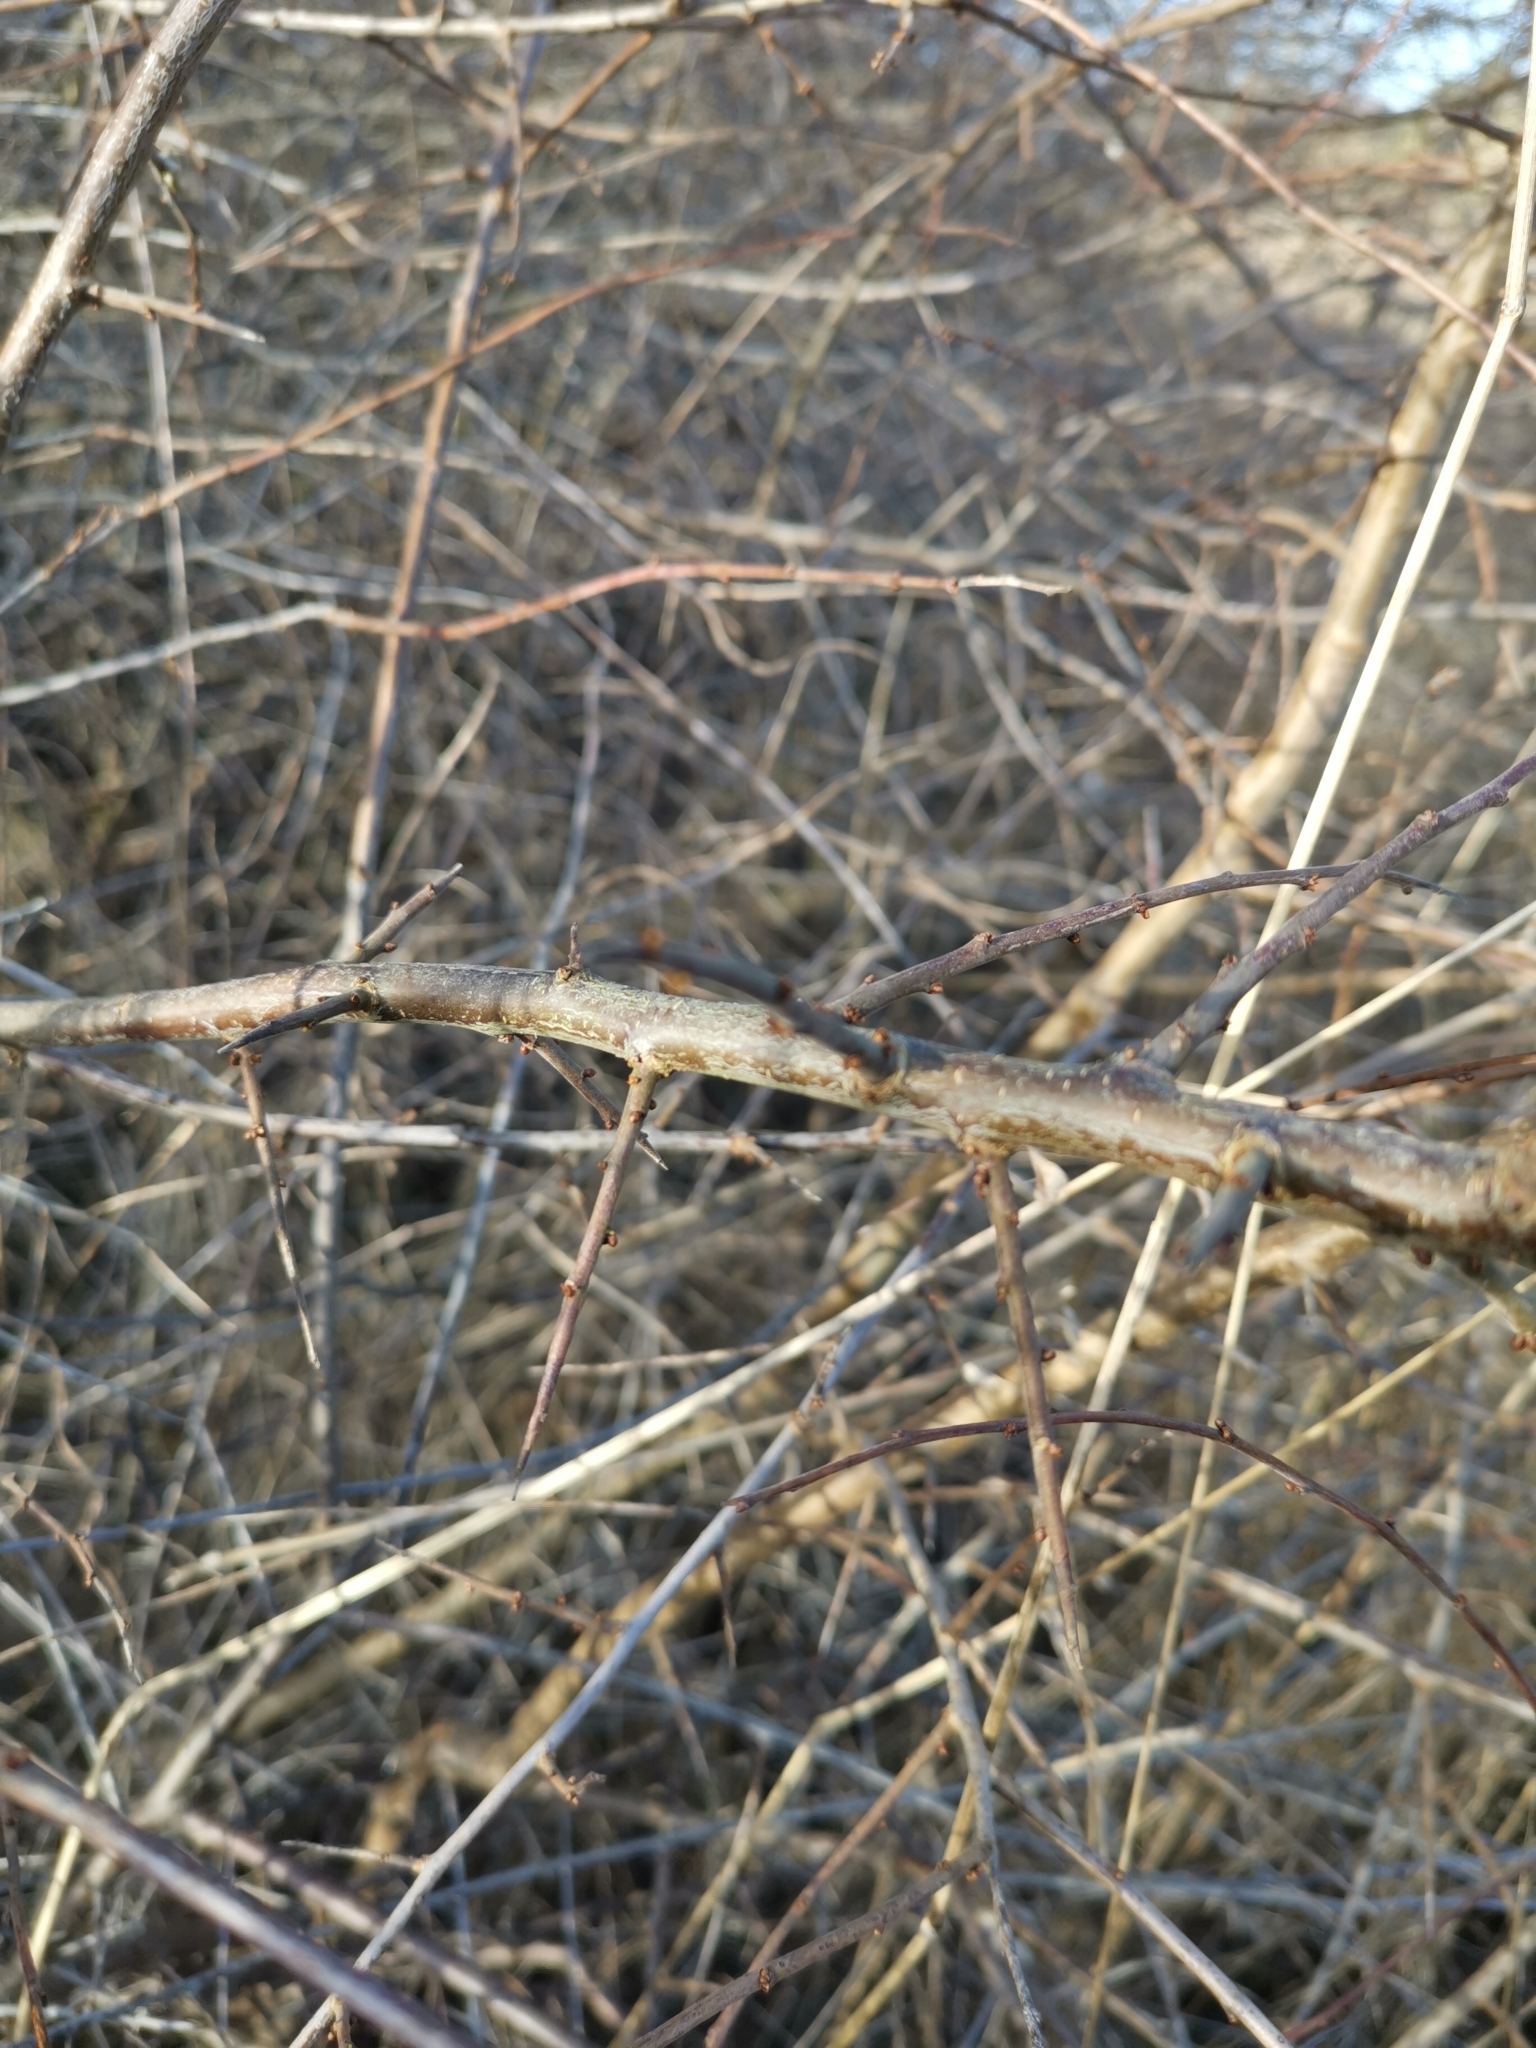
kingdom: Plantae
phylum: Tracheophyta
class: Magnoliopsida
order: Rosales
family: Rosaceae
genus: Prunus
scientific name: Prunus spinosa
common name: Blackthorn
